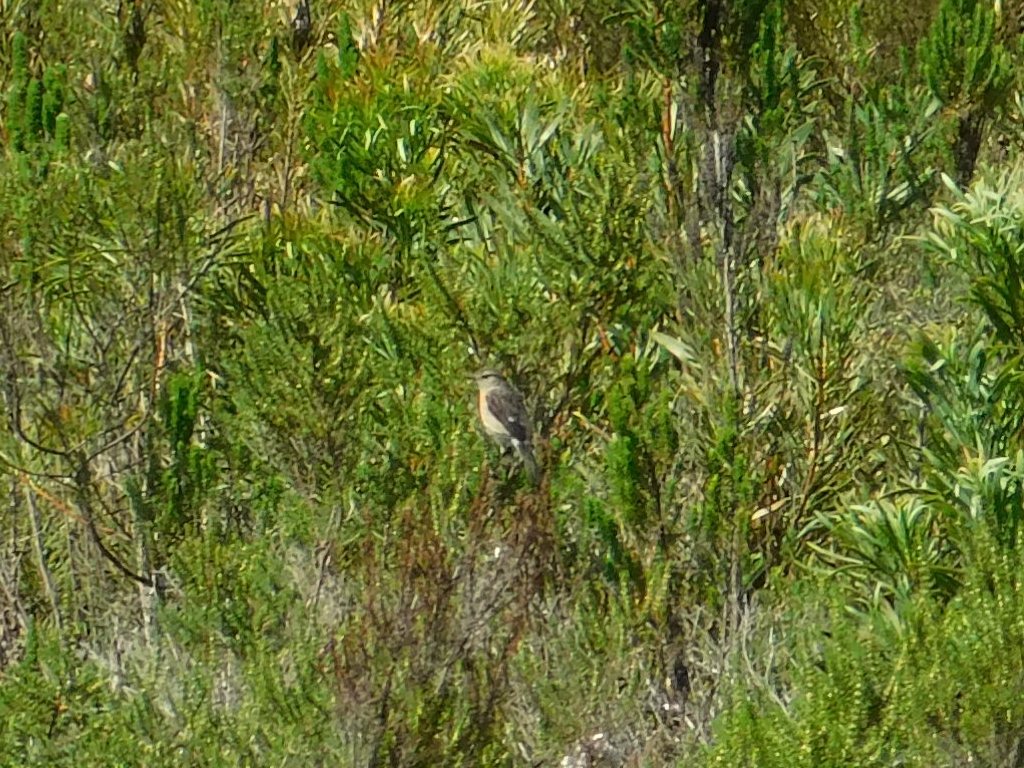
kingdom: Animalia
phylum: Chordata
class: Aves
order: Passeriformes
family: Muscicapidae
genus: Saxicola
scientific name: Saxicola torquatus
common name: African stonechat
